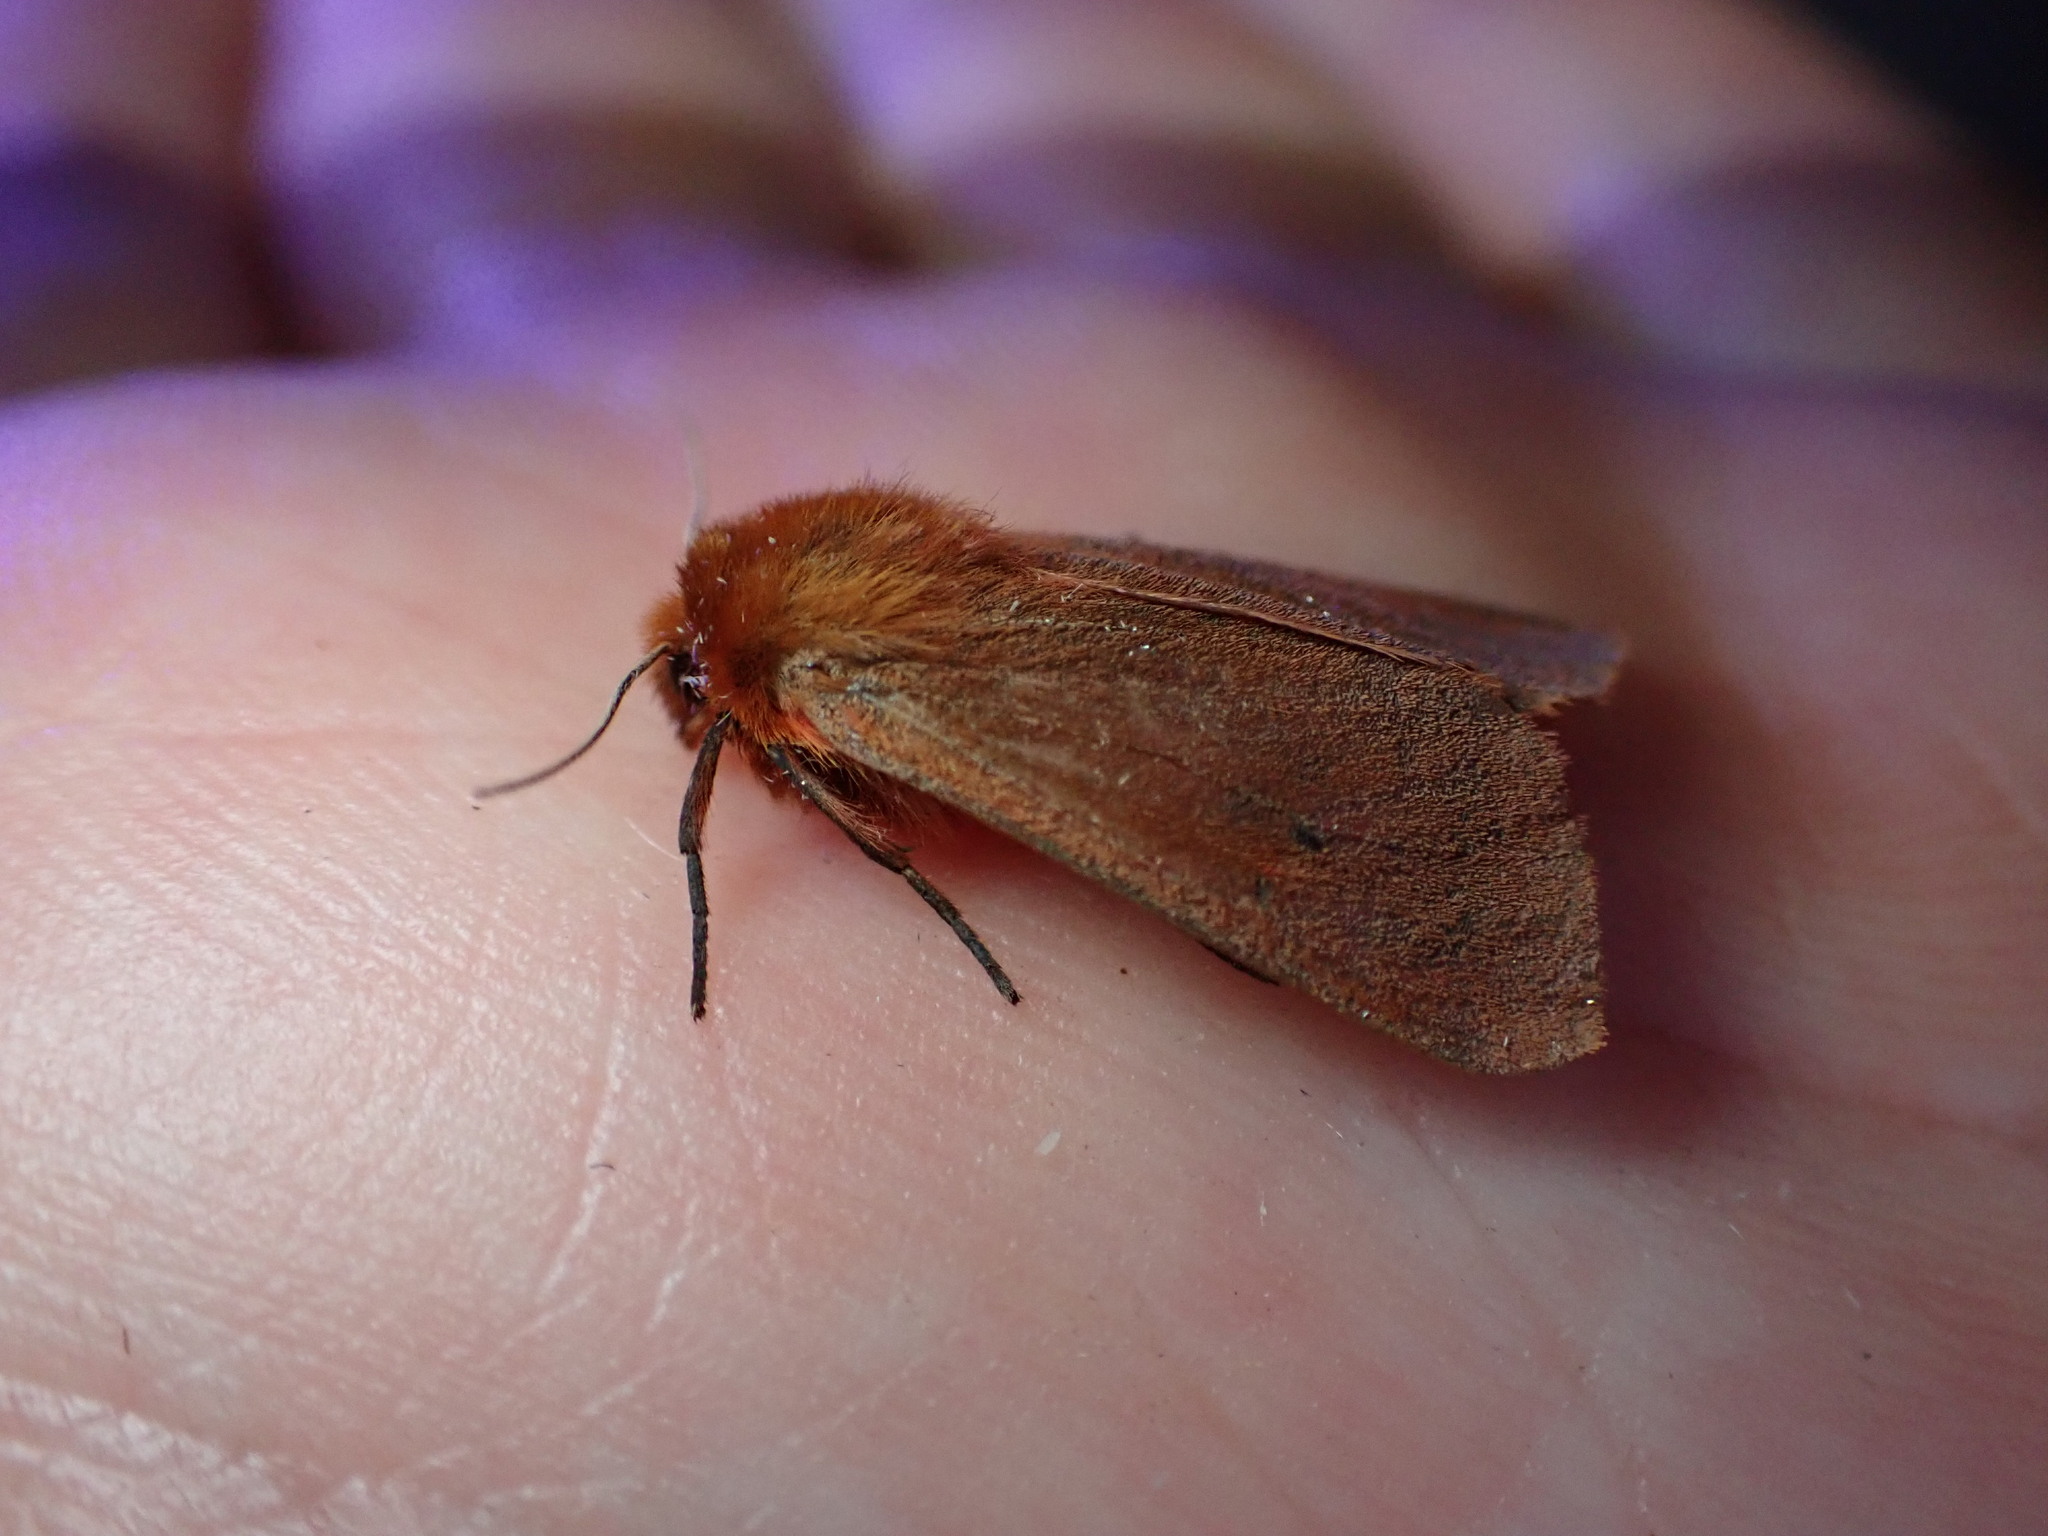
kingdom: Animalia
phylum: Arthropoda
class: Insecta
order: Lepidoptera
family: Erebidae
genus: Phragmatobia
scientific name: Phragmatobia fuliginosa
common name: Ruby tiger
